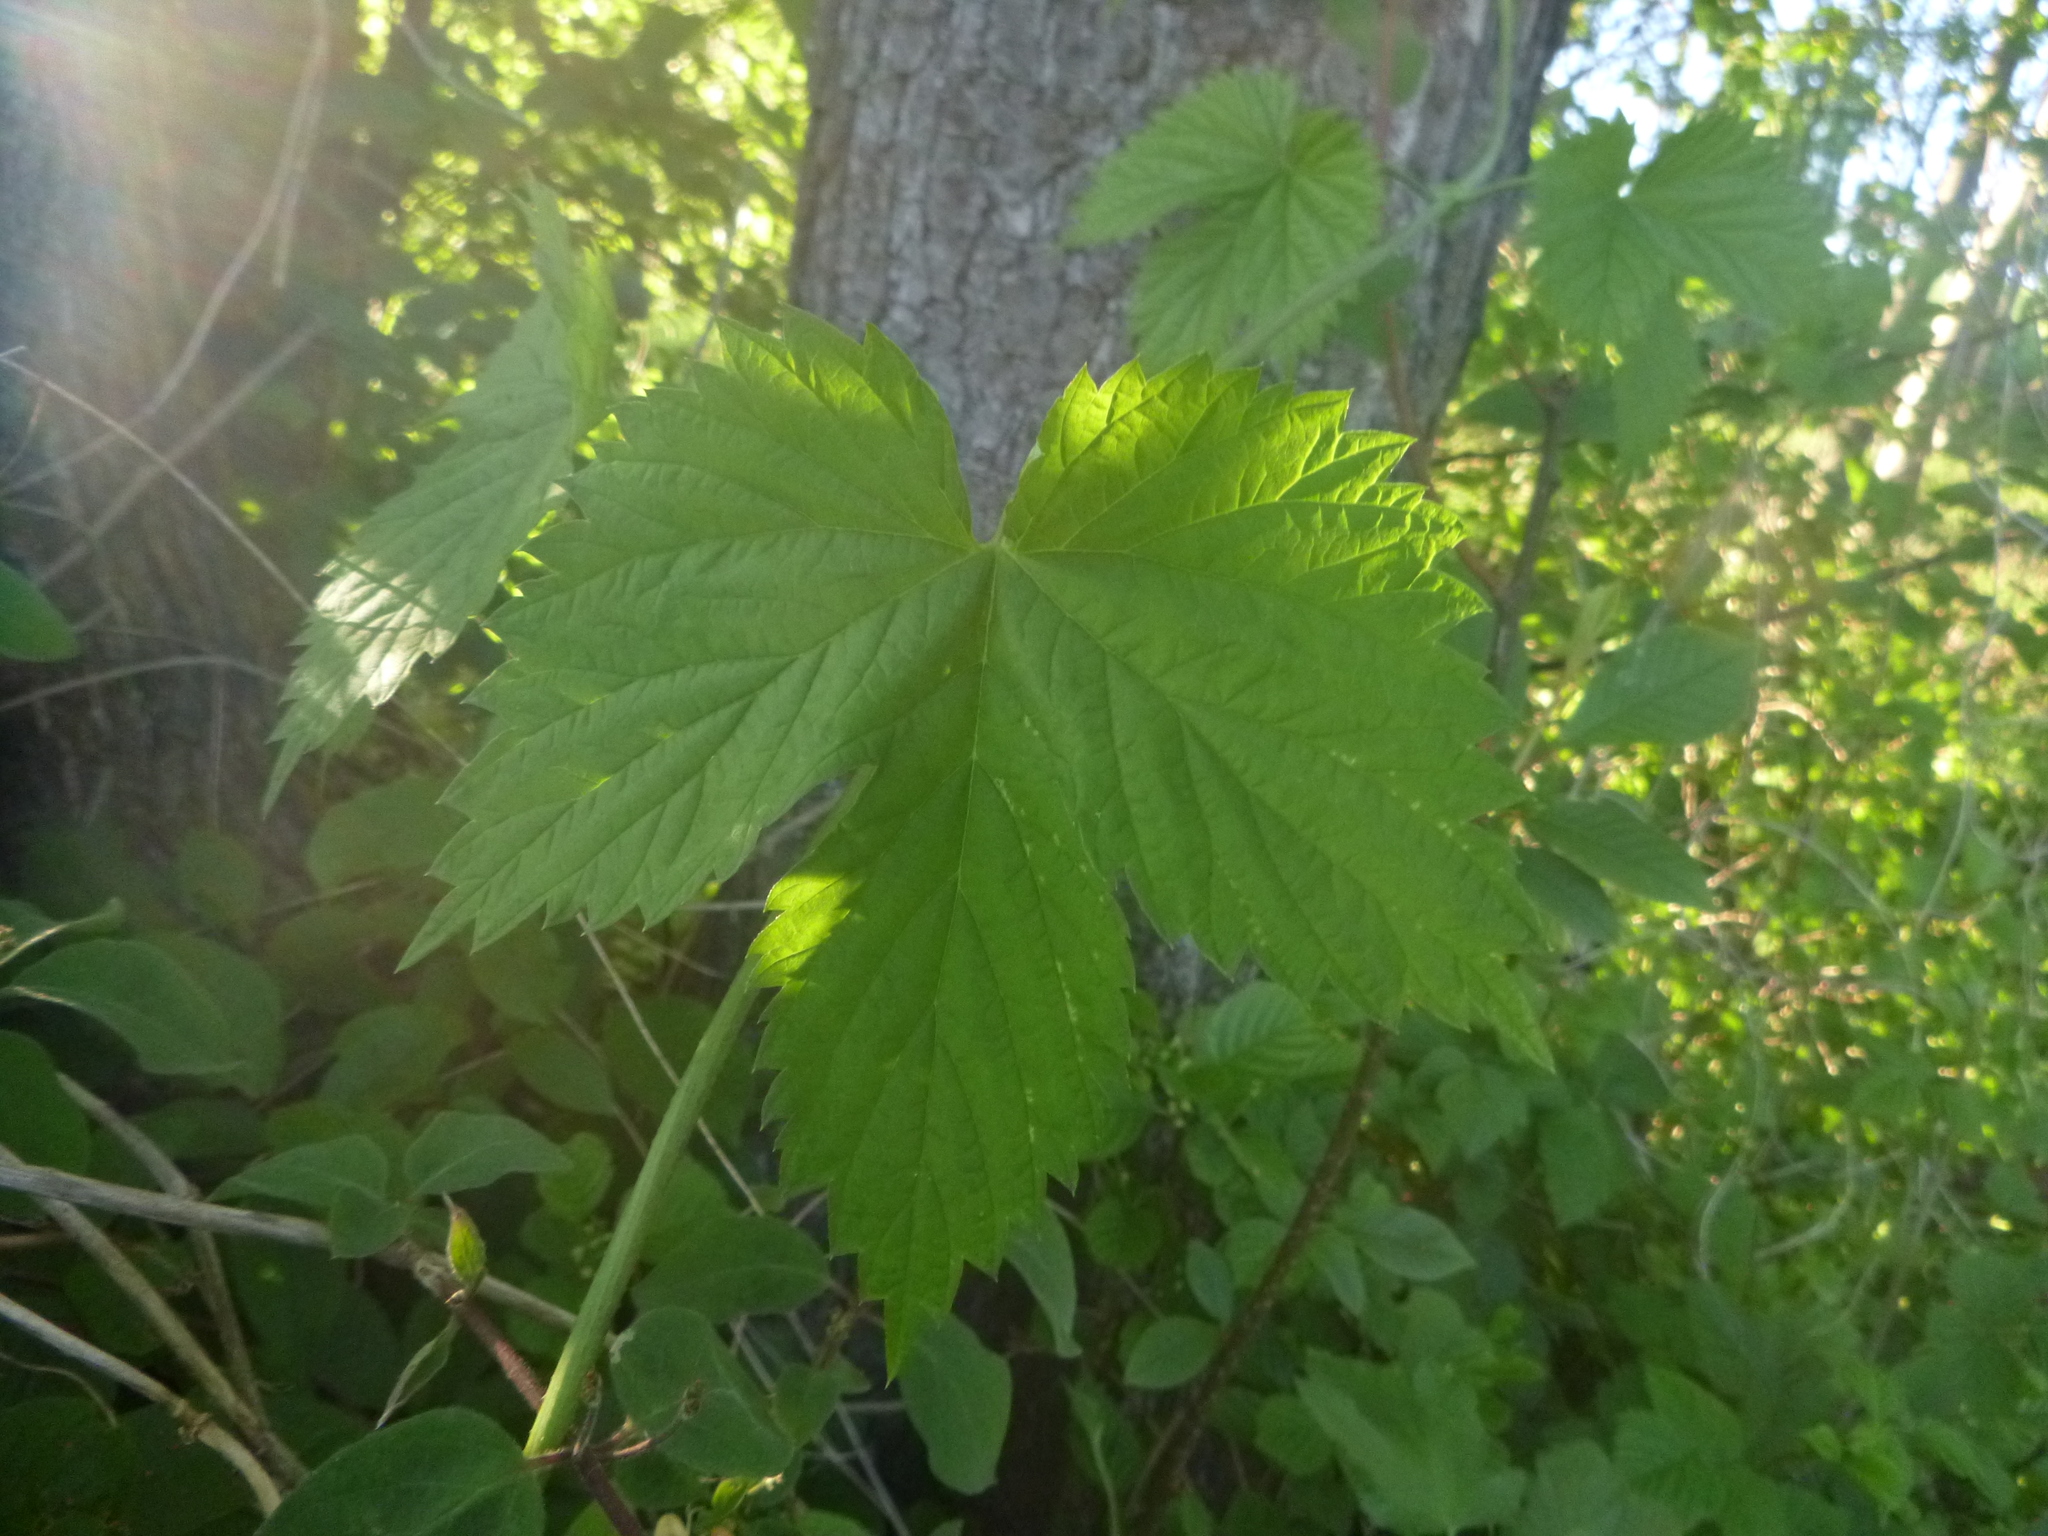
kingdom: Plantae
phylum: Tracheophyta
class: Magnoliopsida
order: Rosales
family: Cannabaceae
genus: Humulus
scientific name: Humulus lupulus
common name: Hop
